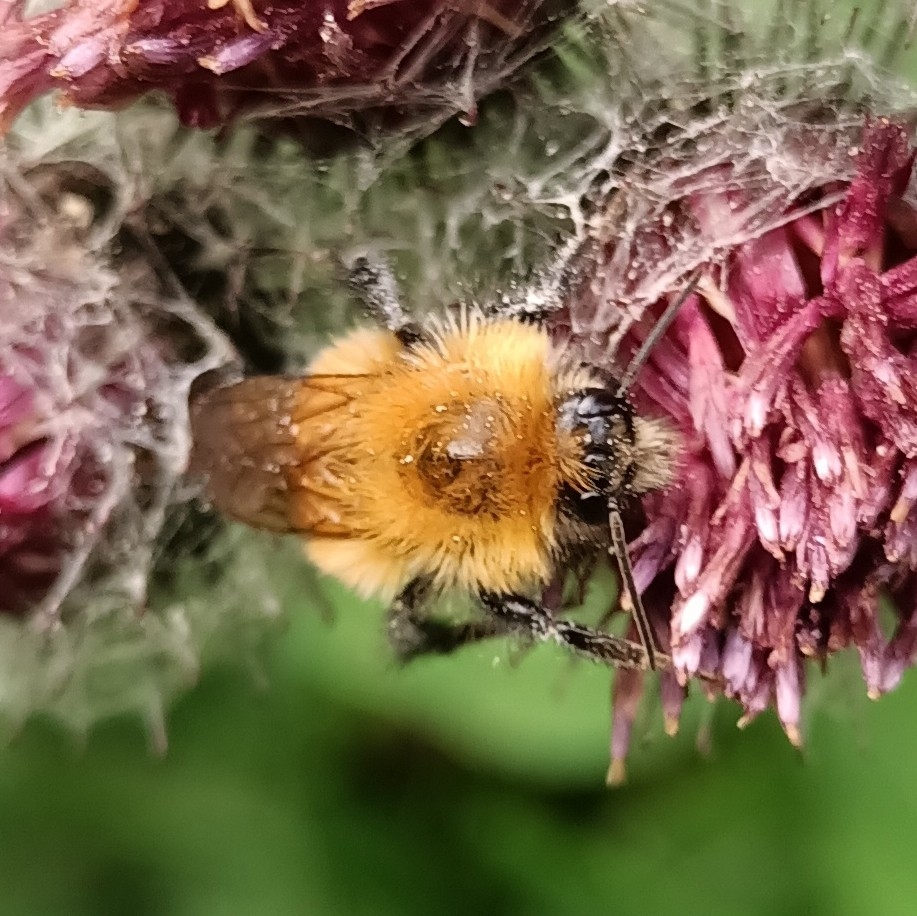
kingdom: Animalia
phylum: Arthropoda
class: Insecta
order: Hymenoptera
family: Apidae
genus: Bombus
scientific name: Bombus hypnorum
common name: New garden bumblebee
